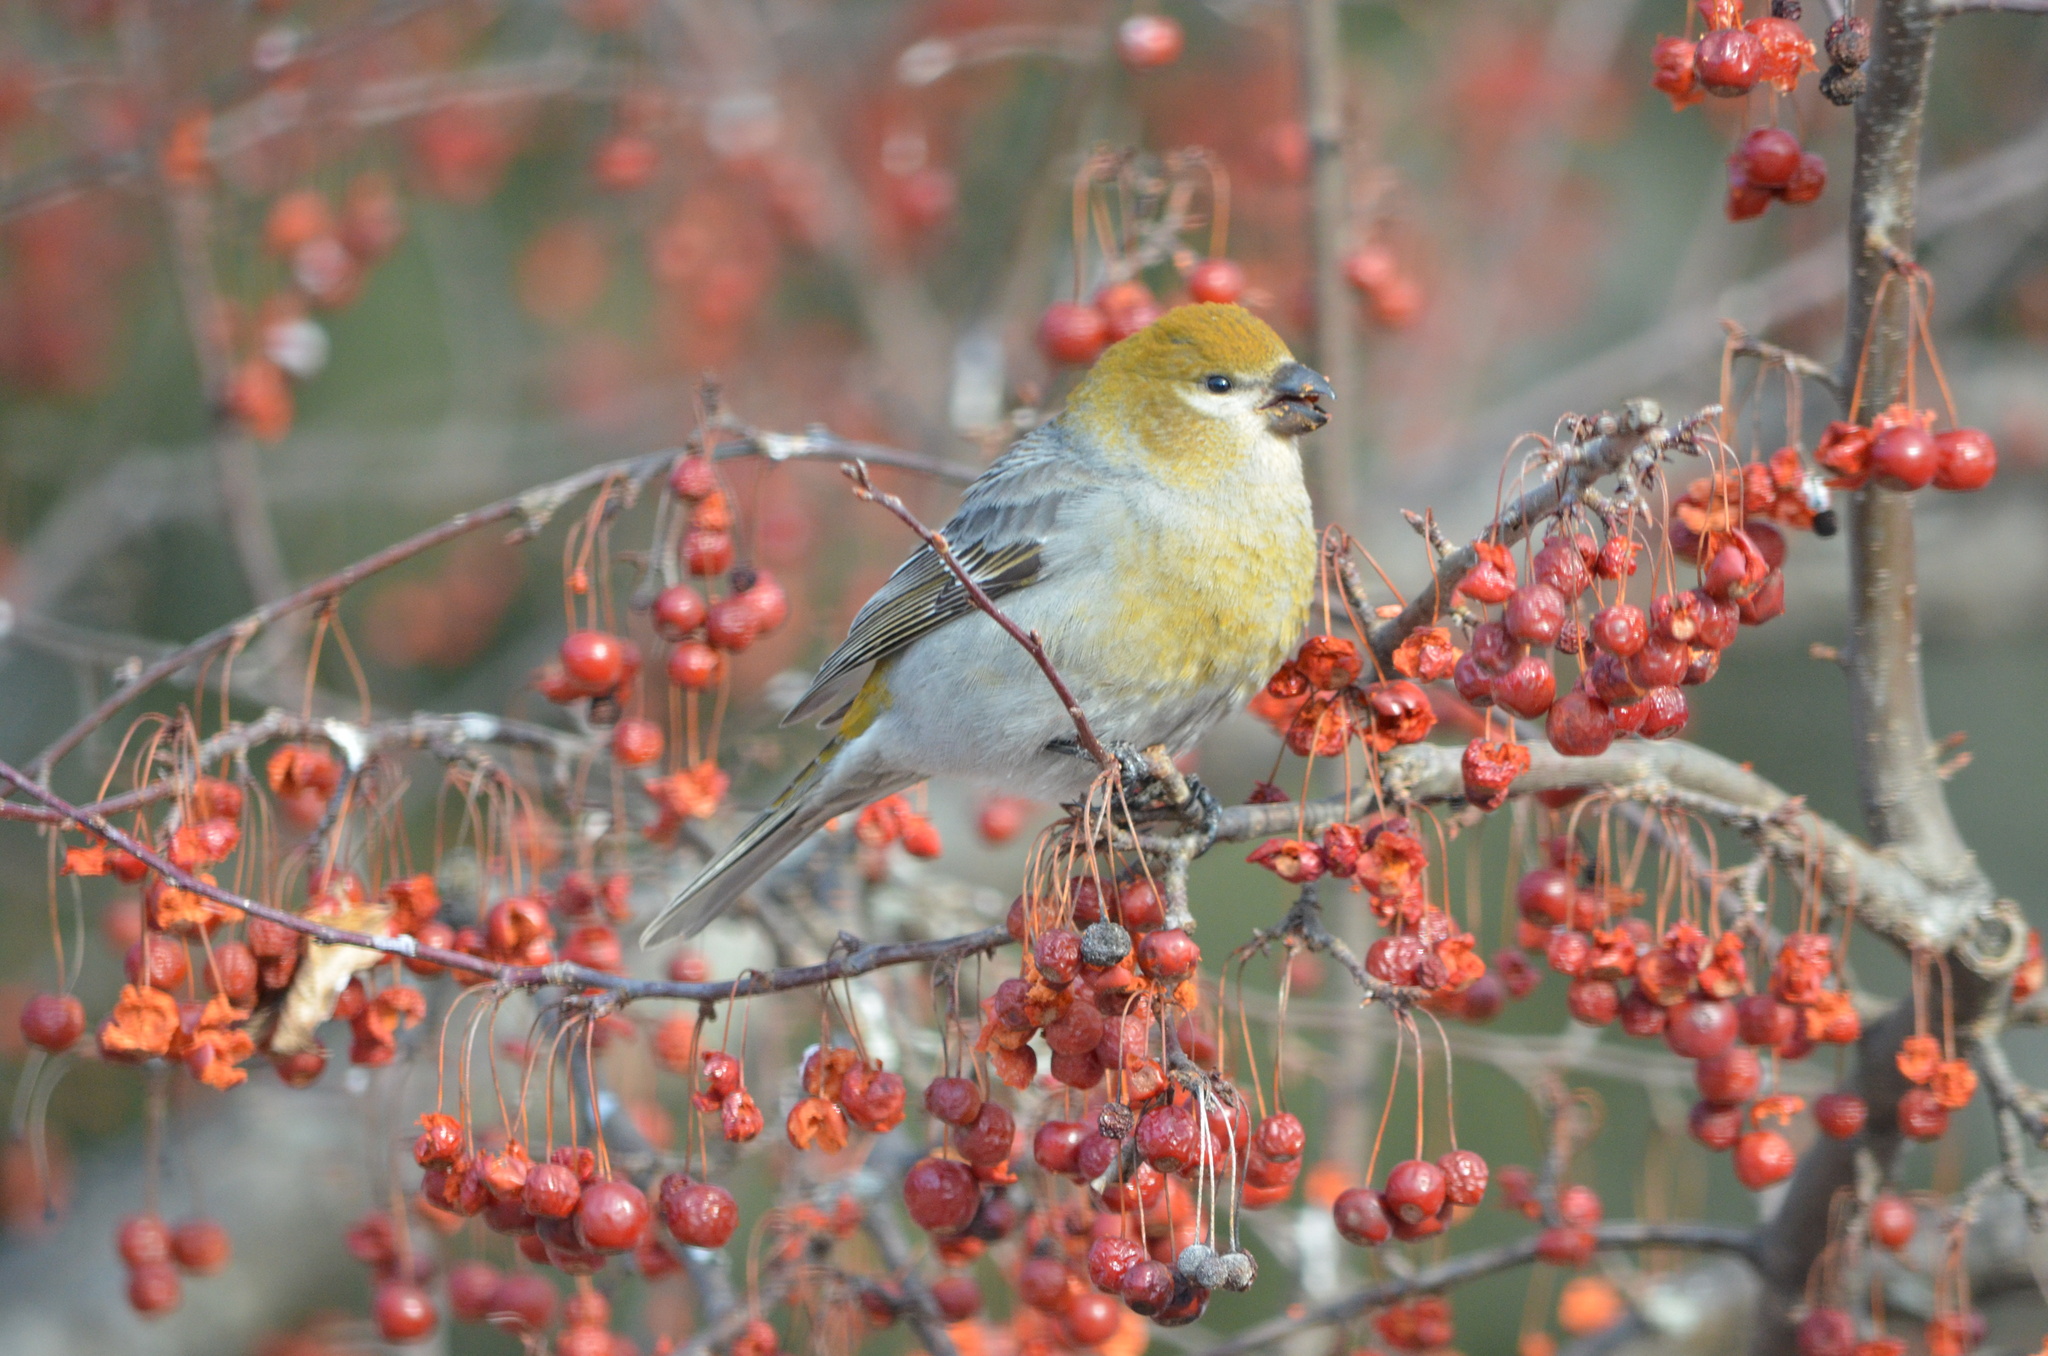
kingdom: Animalia
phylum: Chordata
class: Aves
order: Passeriformes
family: Fringillidae
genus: Pinicola
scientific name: Pinicola enucleator
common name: Pine grosbeak
